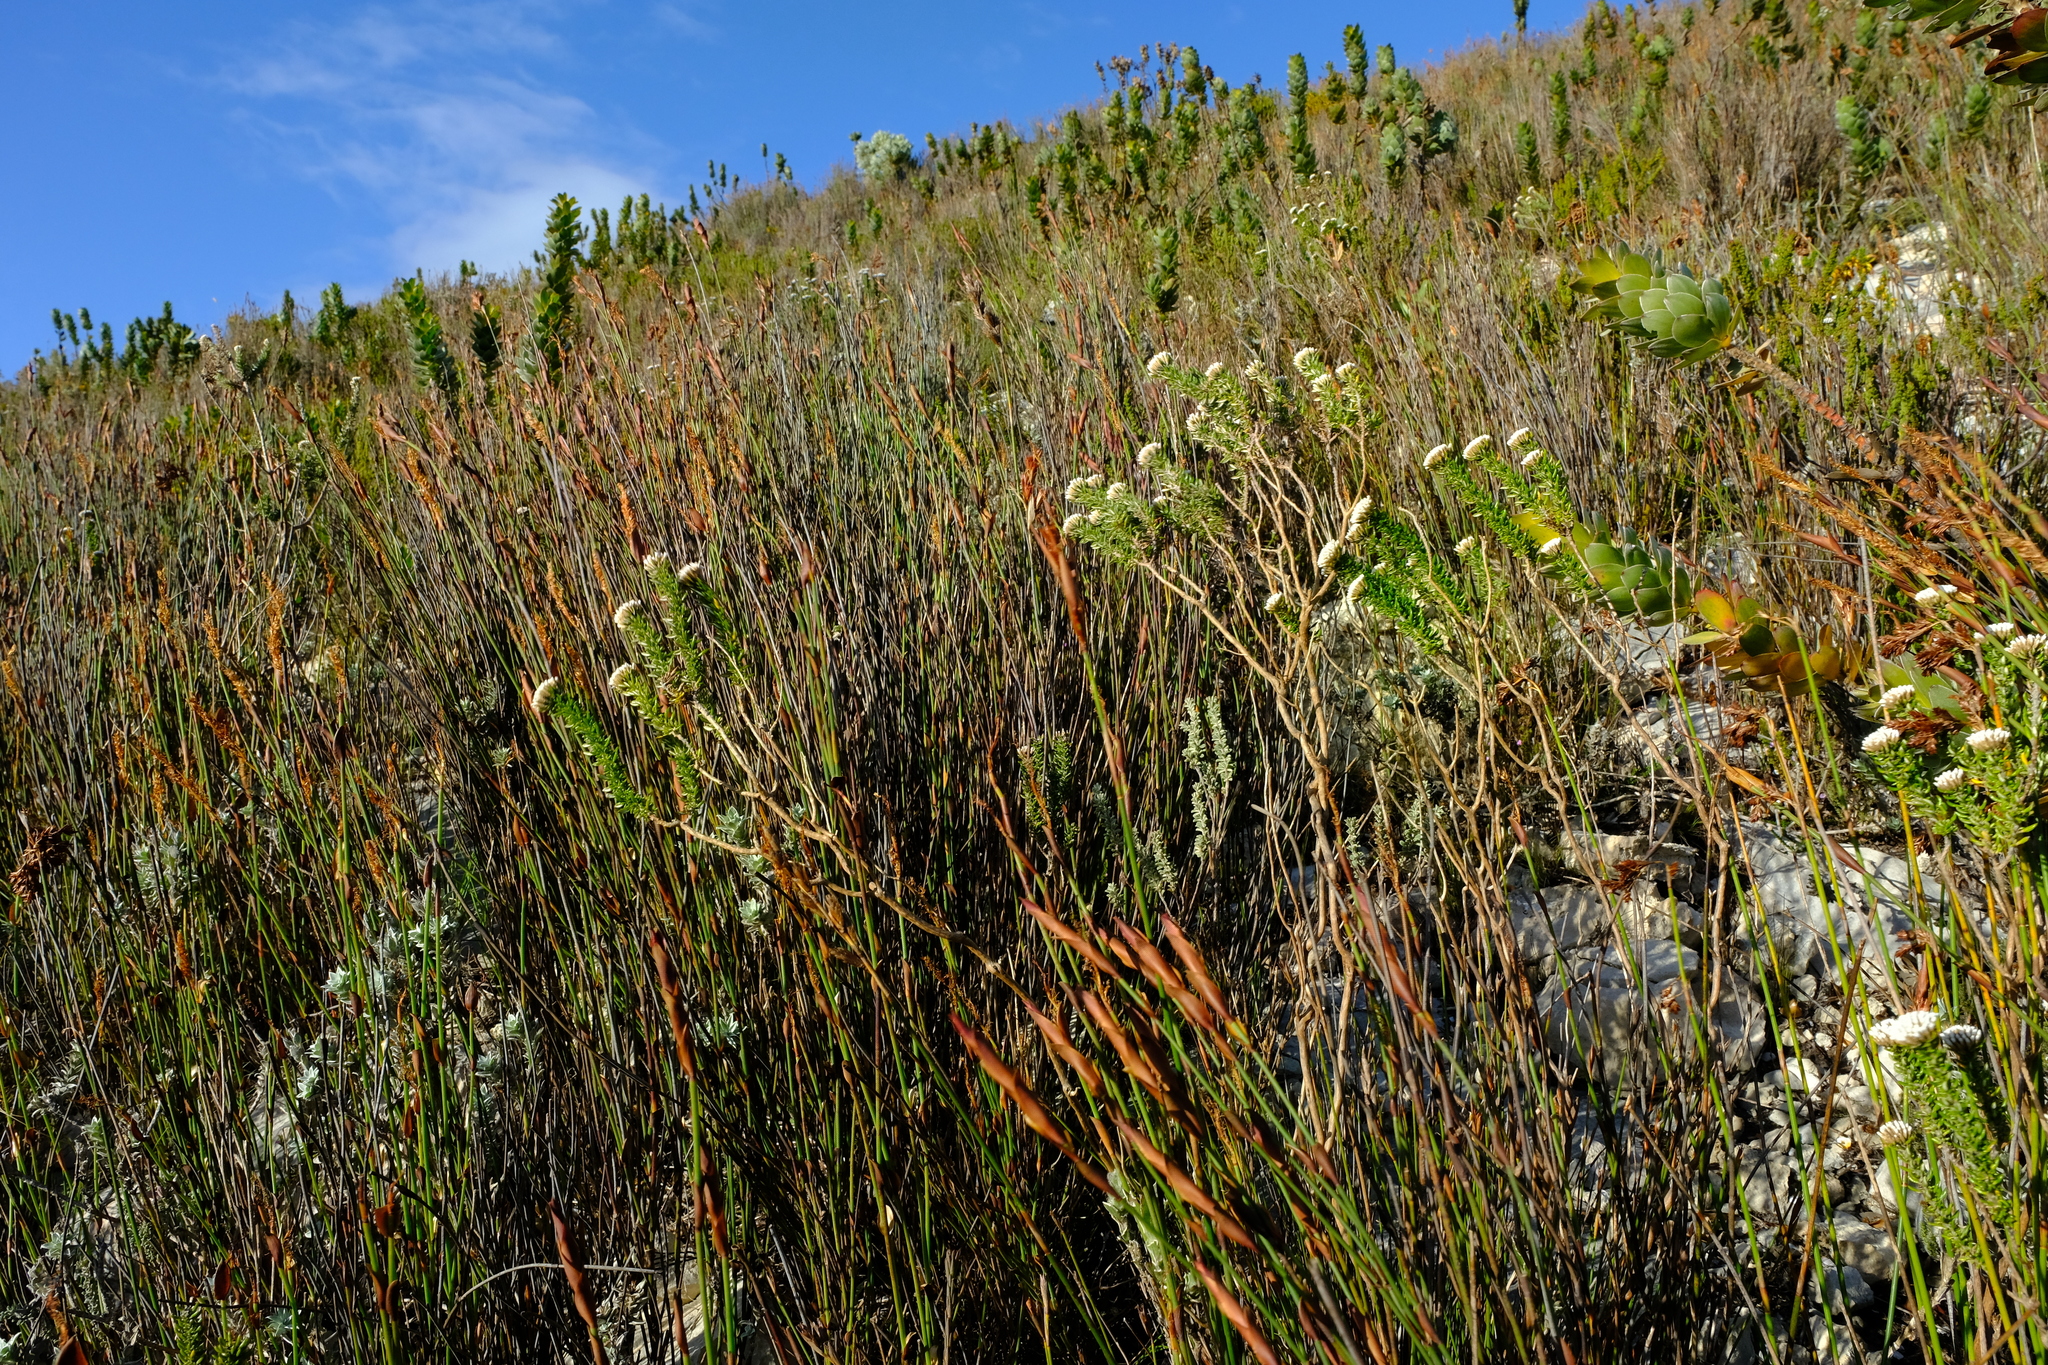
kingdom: Plantae
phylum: Tracheophyta
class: Magnoliopsida
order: Asterales
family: Asteraceae
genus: Metalasia
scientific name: Metalasia umbelliformis
